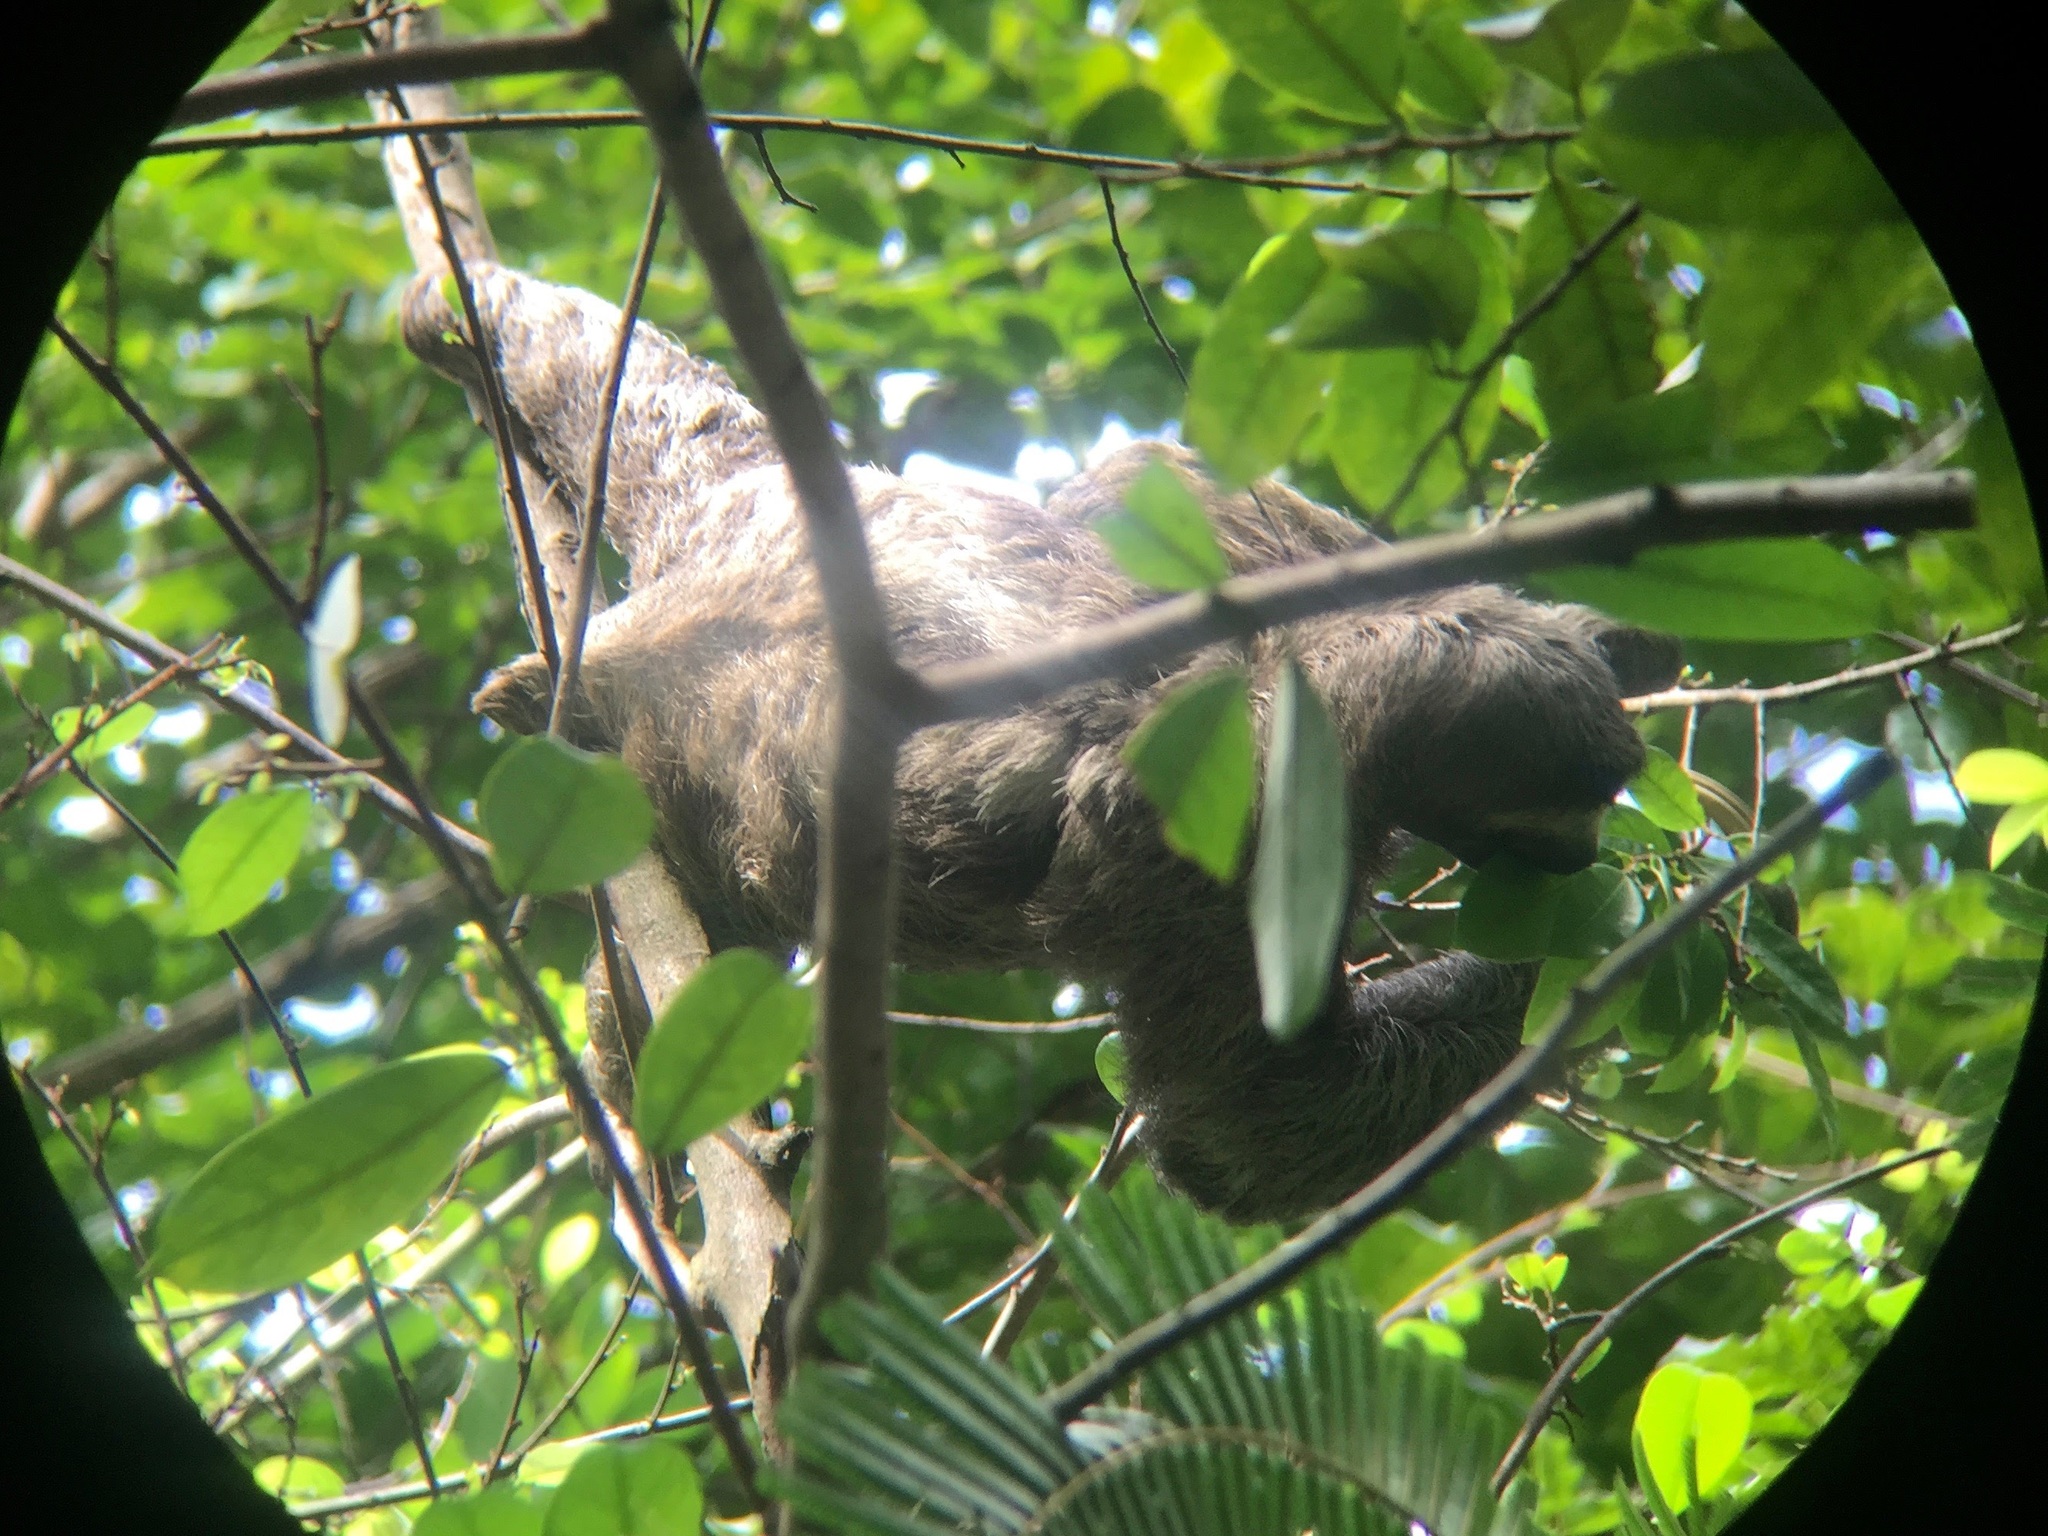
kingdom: Animalia
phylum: Chordata
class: Mammalia
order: Pilosa
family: Bradypodidae
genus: Bradypus
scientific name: Bradypus variegatus
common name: Brown-throated three-toed sloth
